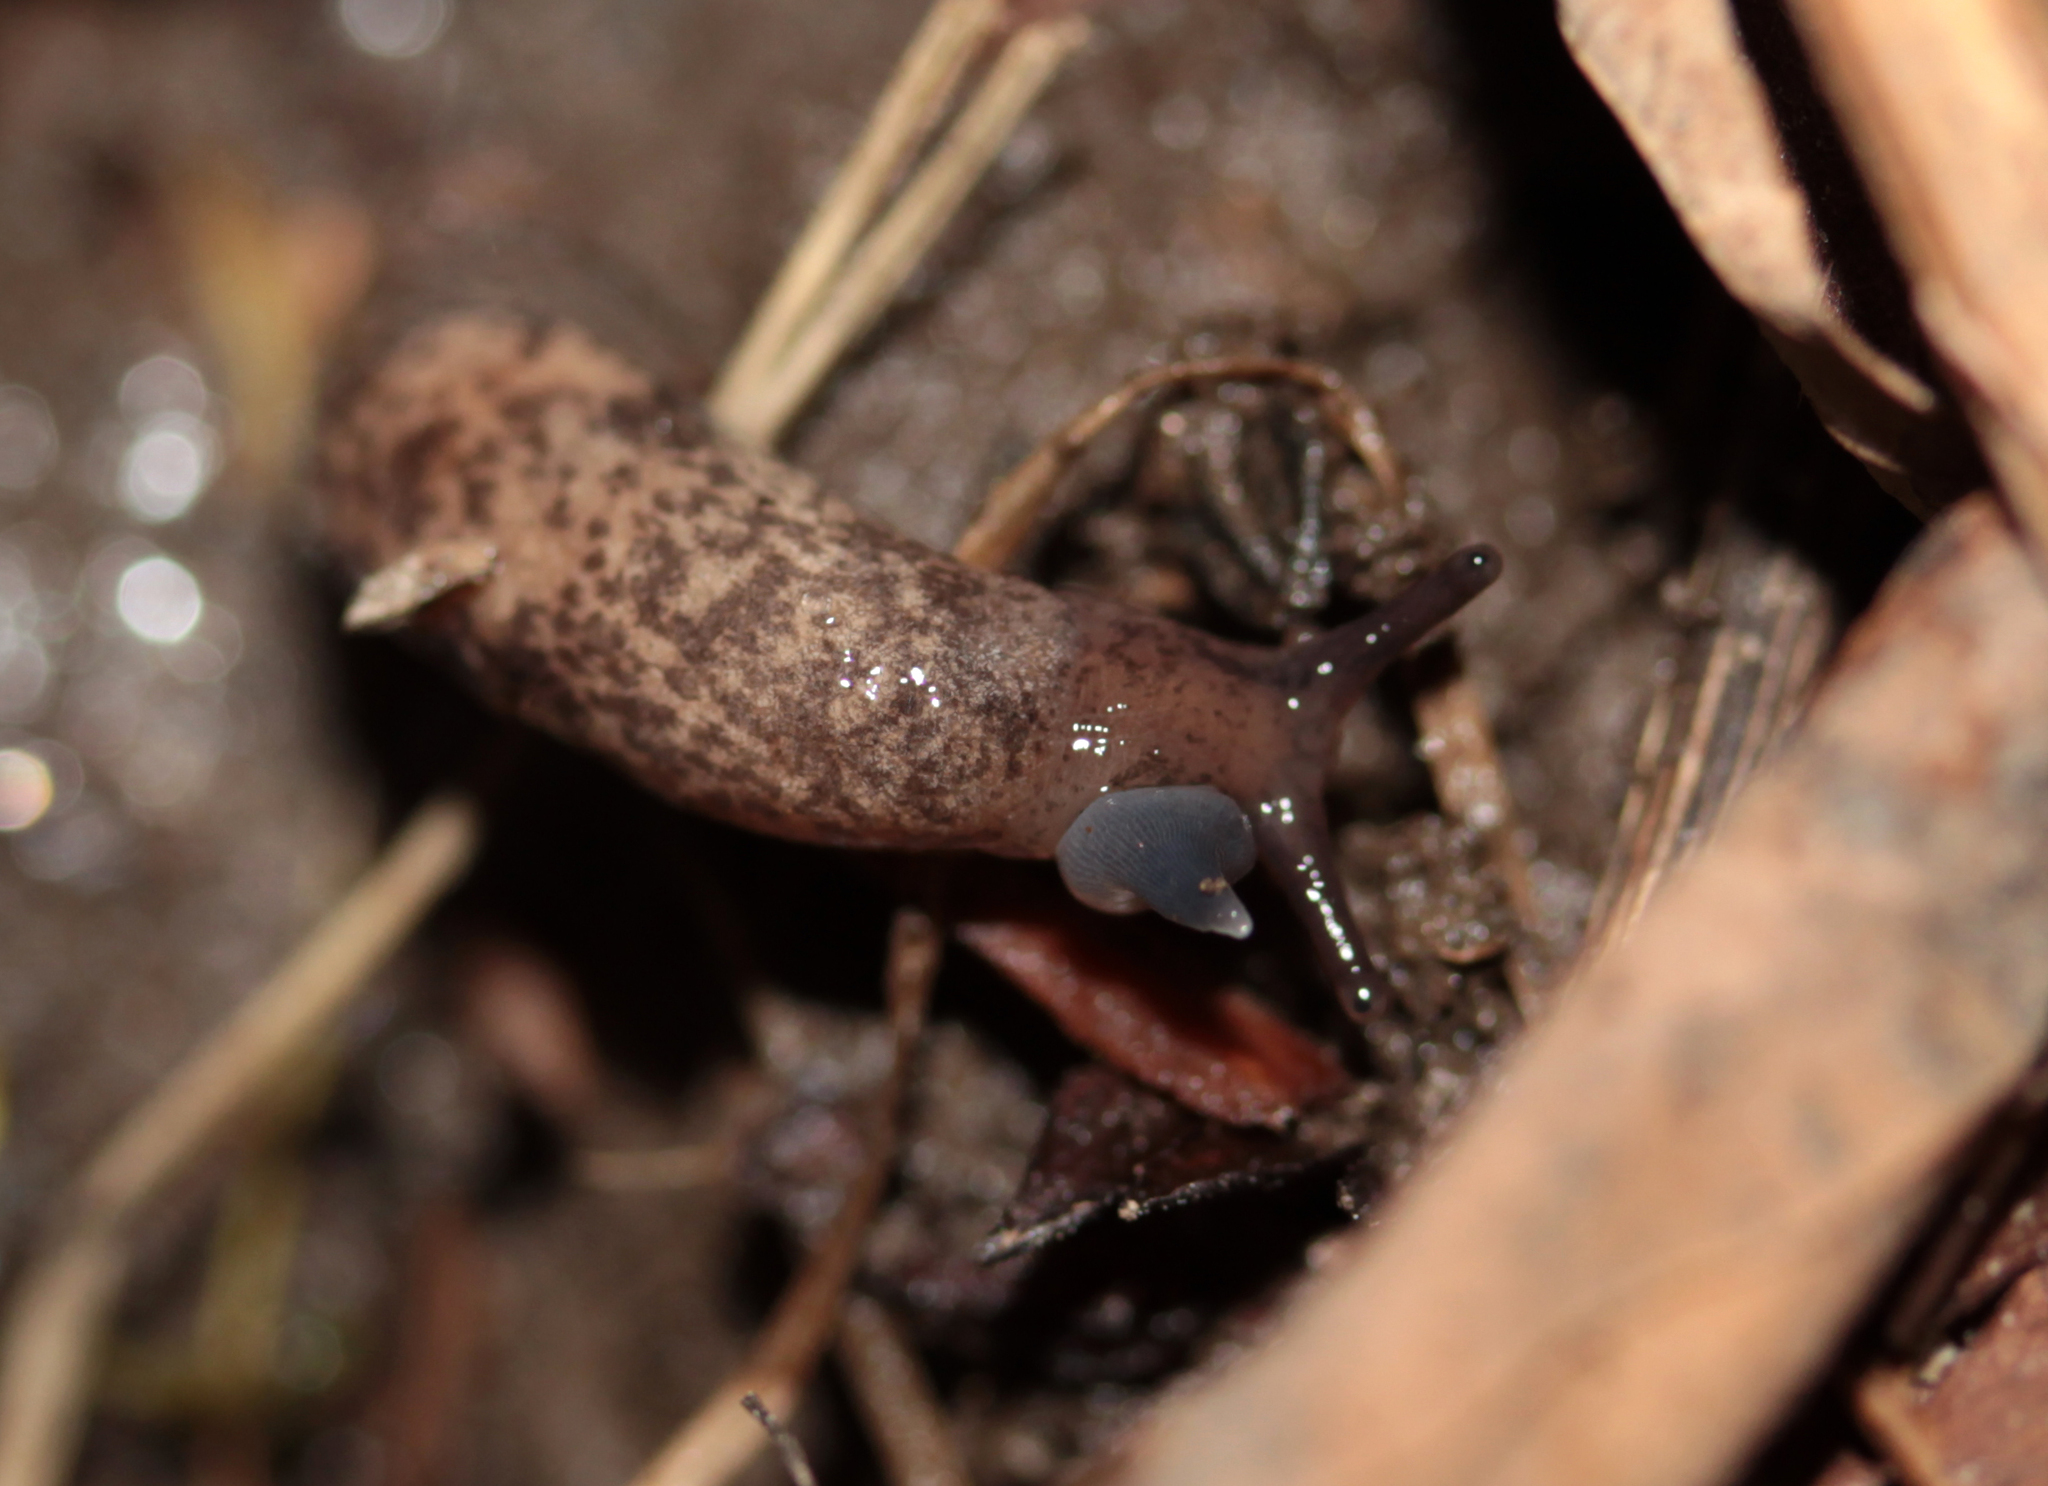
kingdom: Animalia
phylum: Mollusca
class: Gastropoda
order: Stylommatophora
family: Agriolimacidae
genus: Deroceras
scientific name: Deroceras reticulatum
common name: Gray field slug
